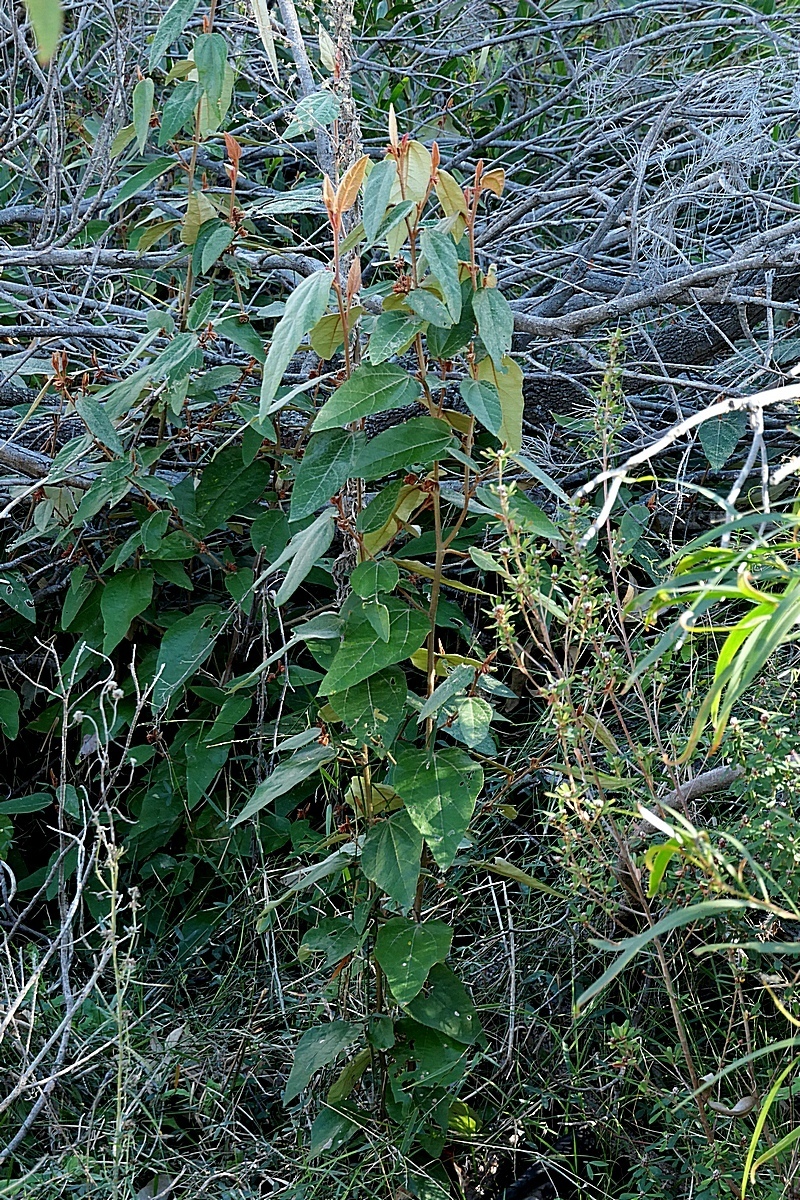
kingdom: Plantae
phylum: Tracheophyta
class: Magnoliopsida
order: Malvales
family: Malvaceae
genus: Lasiopetalum
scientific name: Lasiopetalum macrophyllum
